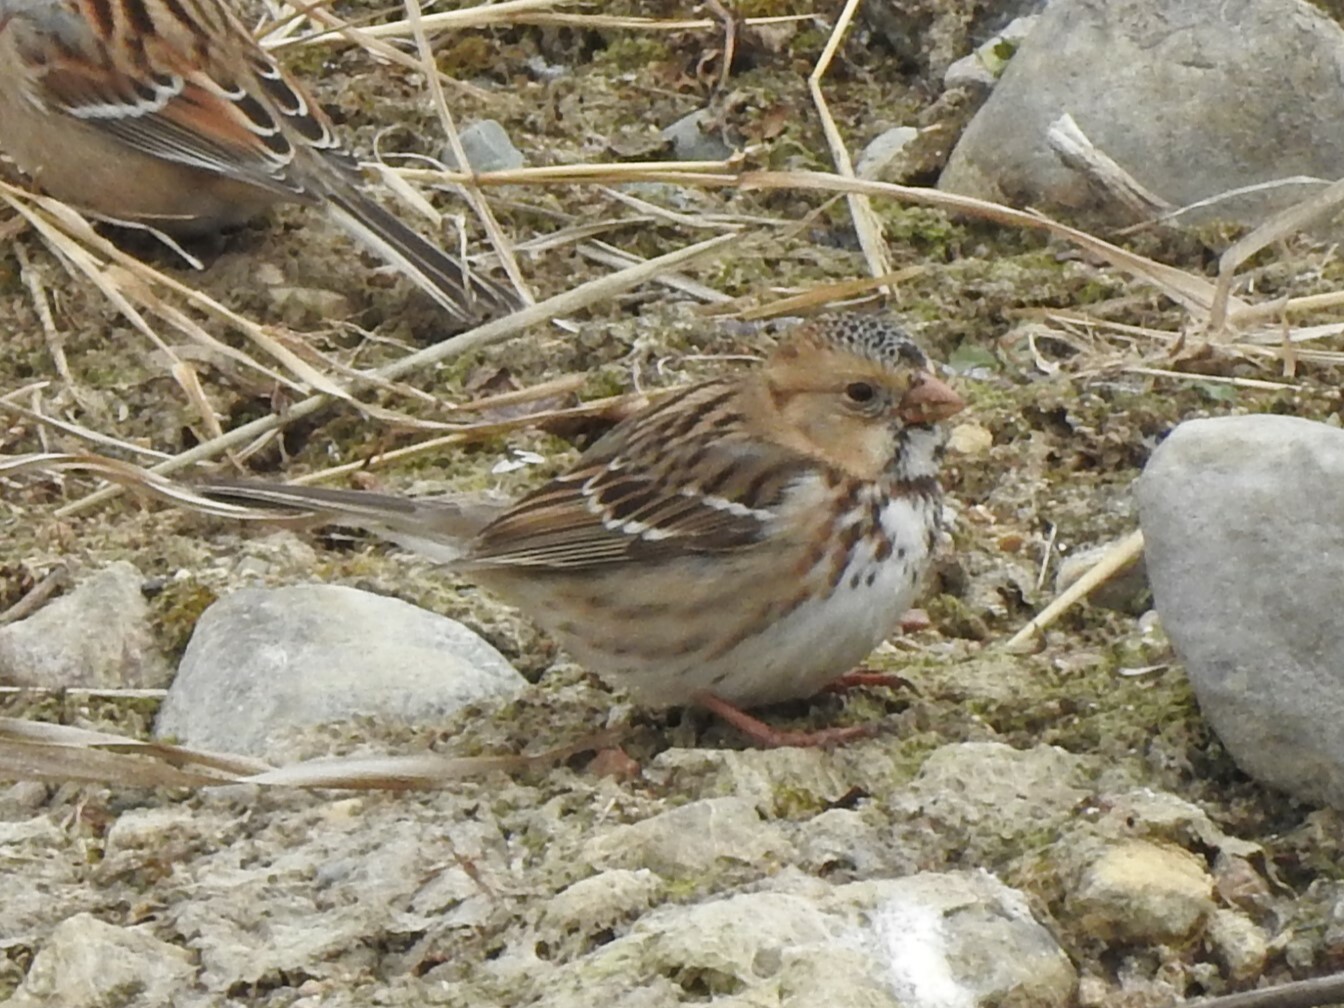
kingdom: Animalia
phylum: Chordata
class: Aves
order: Passeriformes
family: Passerellidae
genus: Zonotrichia
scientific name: Zonotrichia querula
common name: Harris's sparrow
